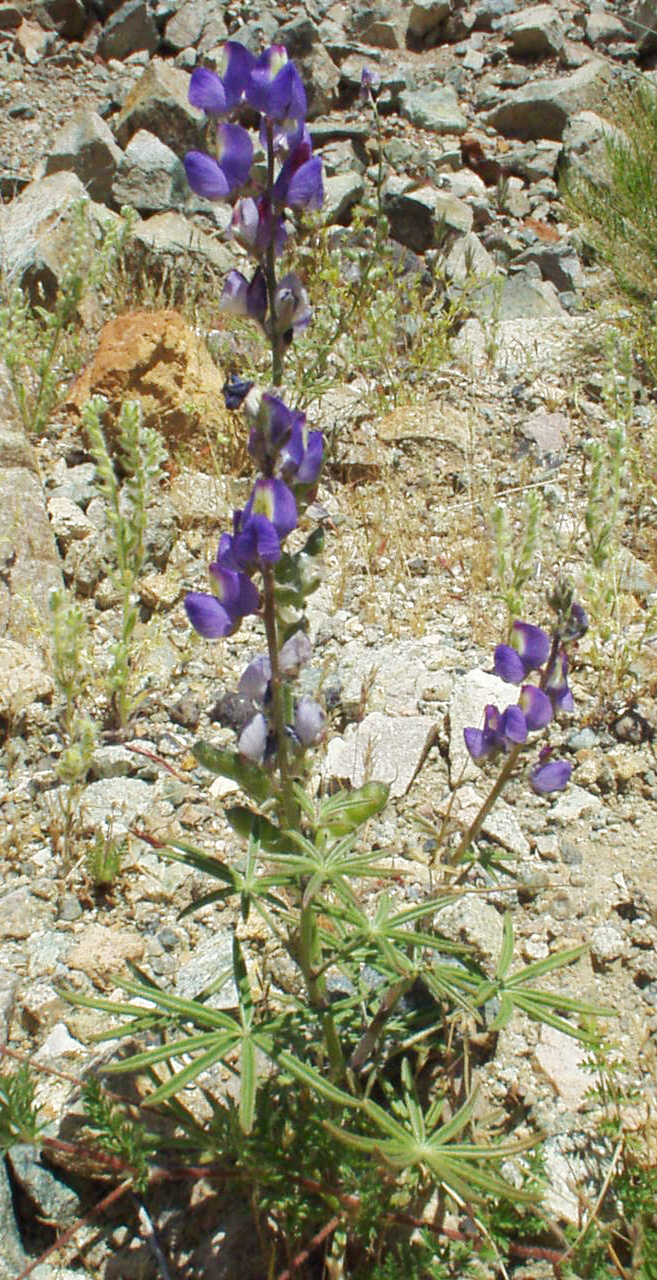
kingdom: Plantae
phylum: Tracheophyta
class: Magnoliopsida
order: Fabales
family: Fabaceae
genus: Lupinus
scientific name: Lupinus sparsiflorus
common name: Coulter's lupine
